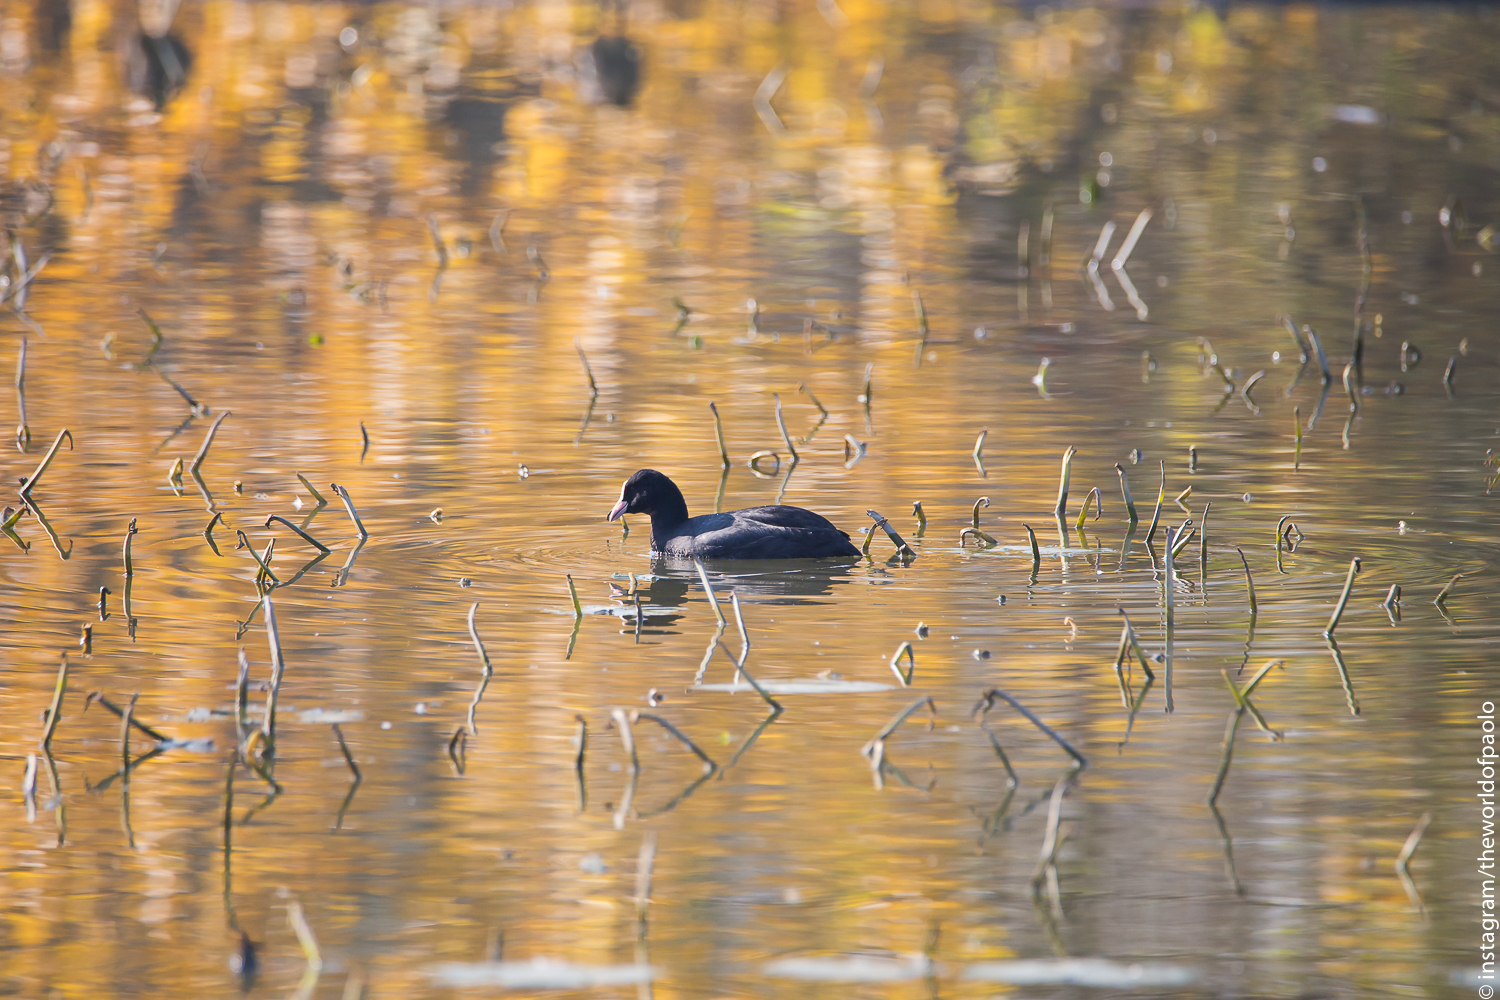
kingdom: Animalia
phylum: Chordata
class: Aves
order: Gruiformes
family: Rallidae
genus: Fulica
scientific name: Fulica atra
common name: Eurasian coot
